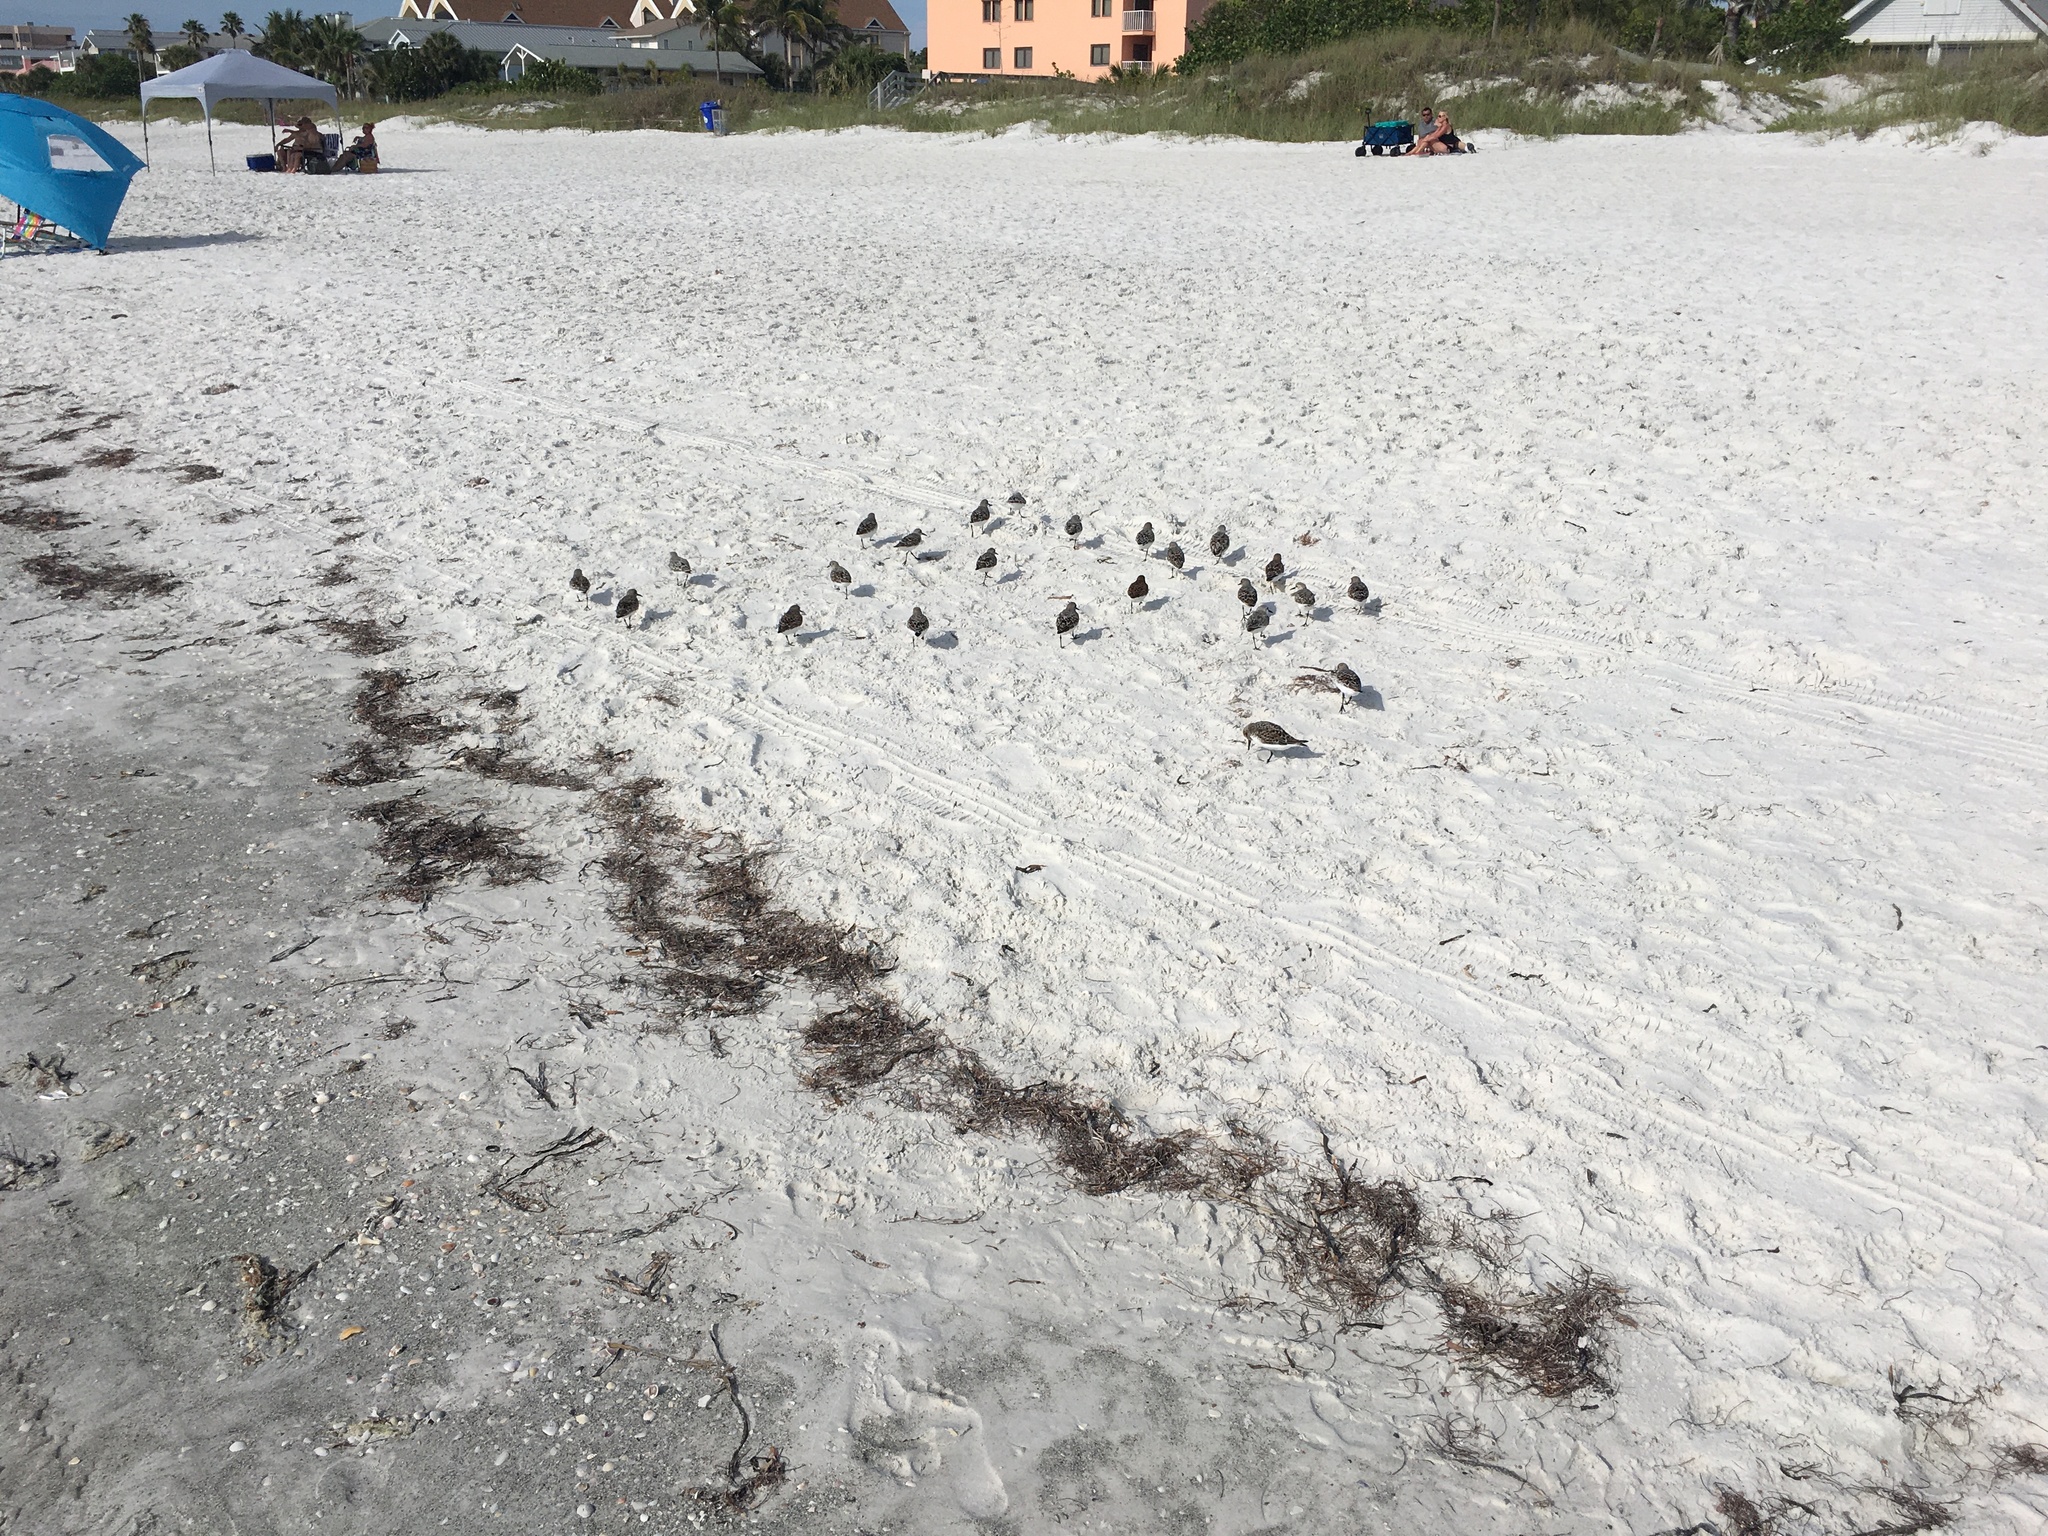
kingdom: Animalia
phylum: Chordata
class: Aves
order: Charadriiformes
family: Scolopacidae
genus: Calidris
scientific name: Calidris alba
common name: Sanderling
